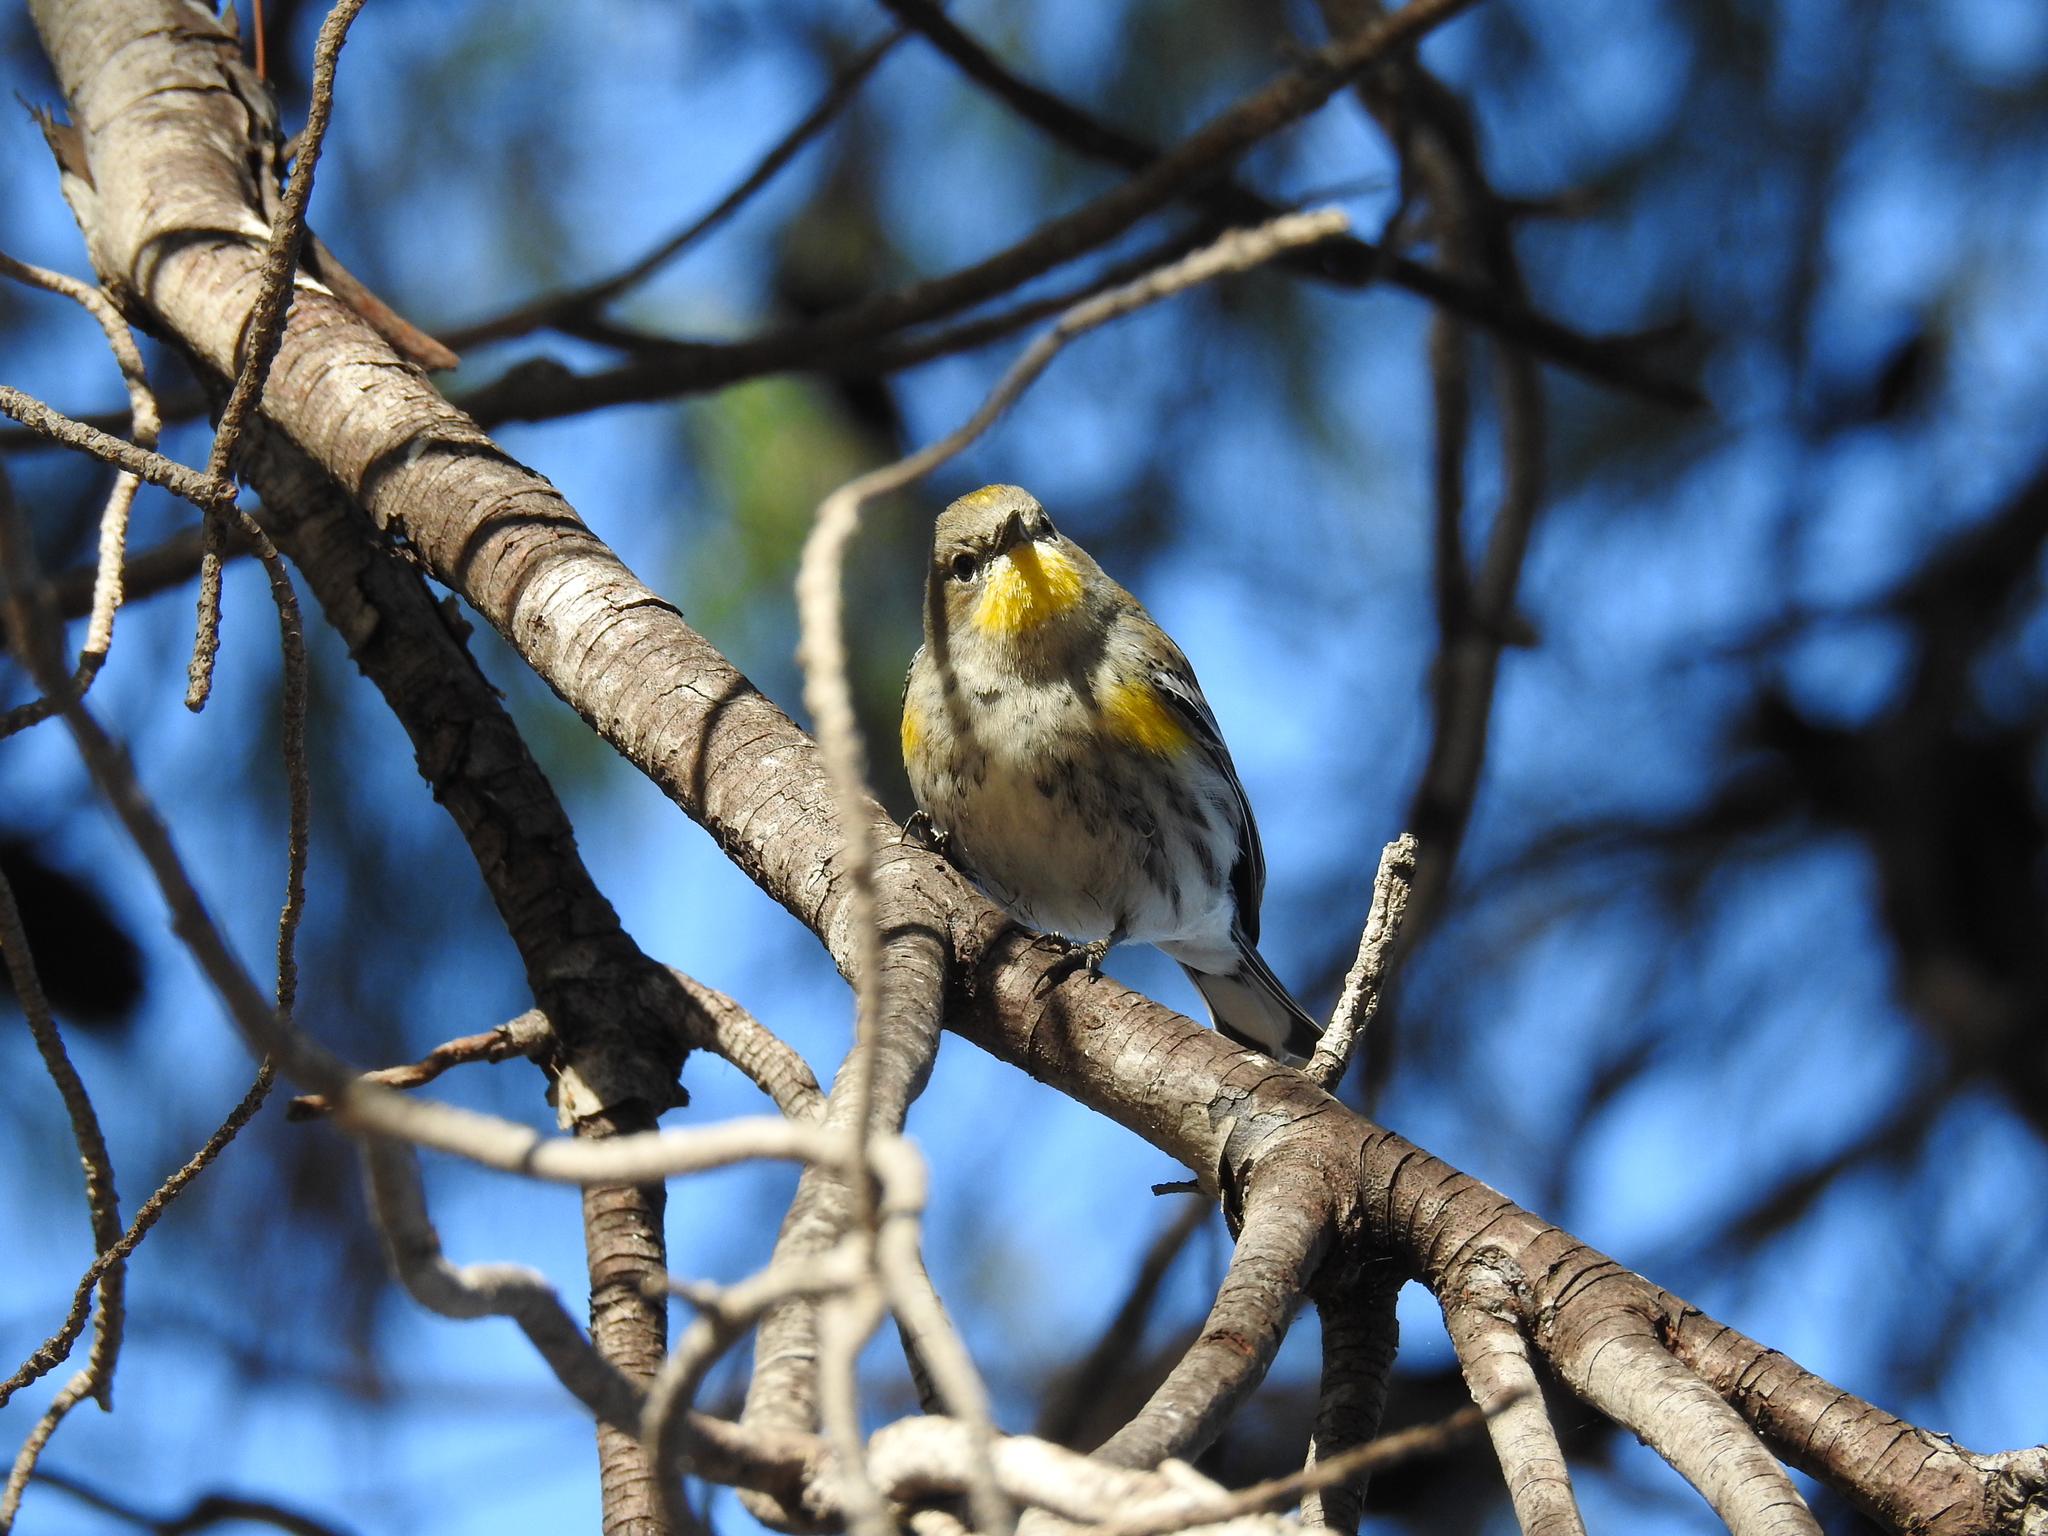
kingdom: Animalia
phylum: Chordata
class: Aves
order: Passeriformes
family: Parulidae
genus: Setophaga
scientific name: Setophaga coronata
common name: Myrtle warbler
